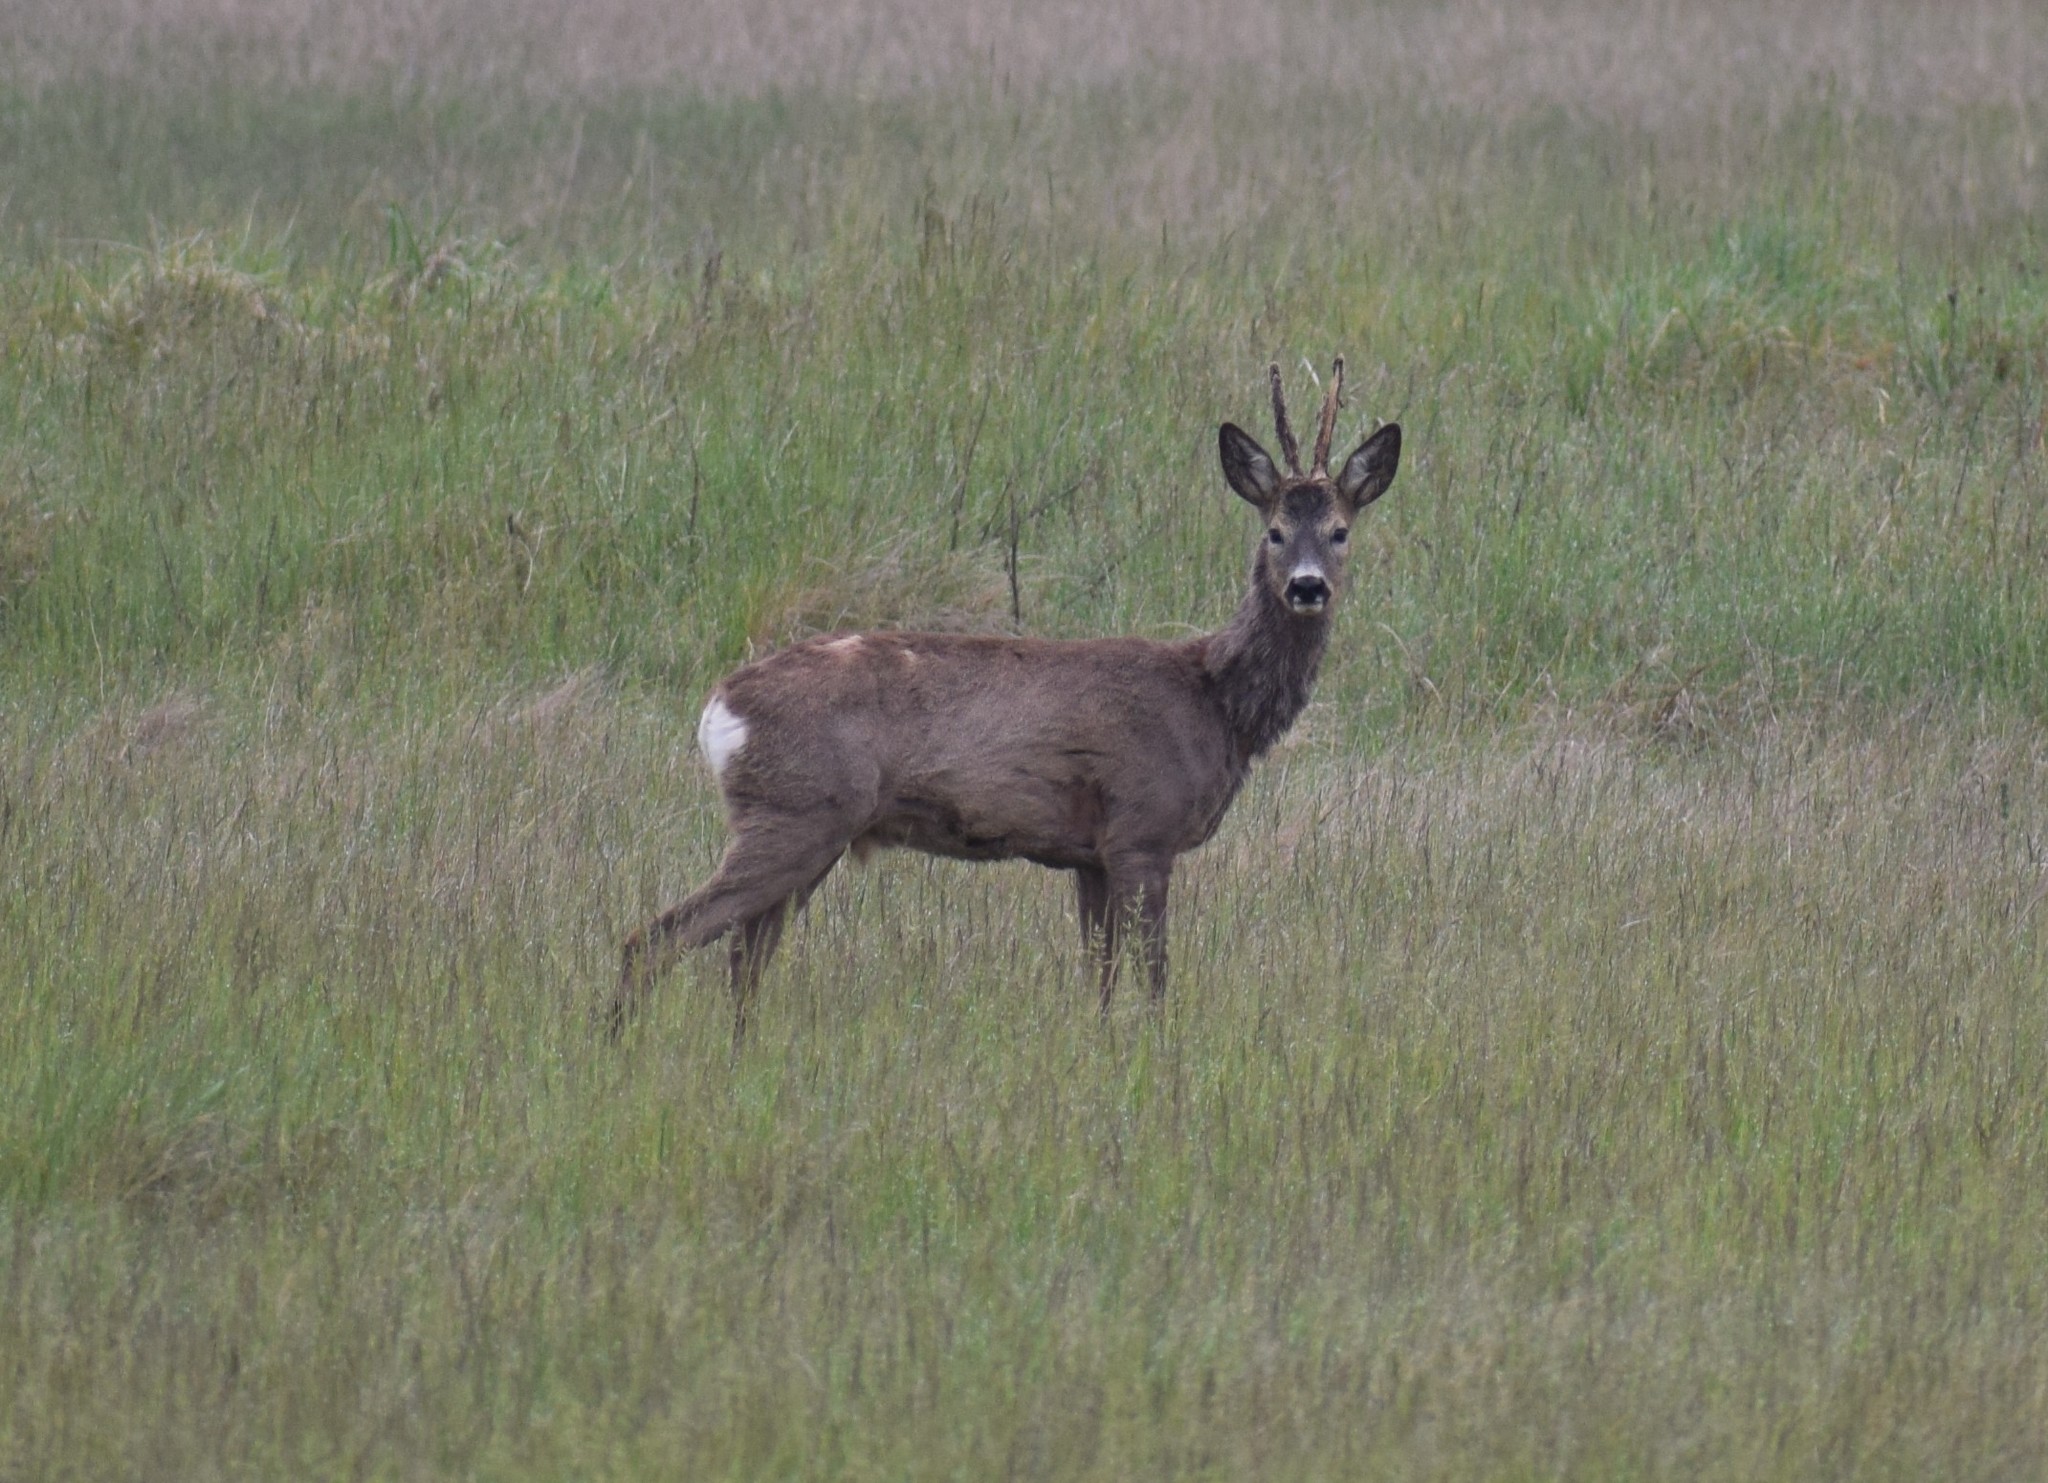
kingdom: Animalia
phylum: Chordata
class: Mammalia
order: Artiodactyla
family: Cervidae
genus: Capreolus
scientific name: Capreolus capreolus
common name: Western roe deer
